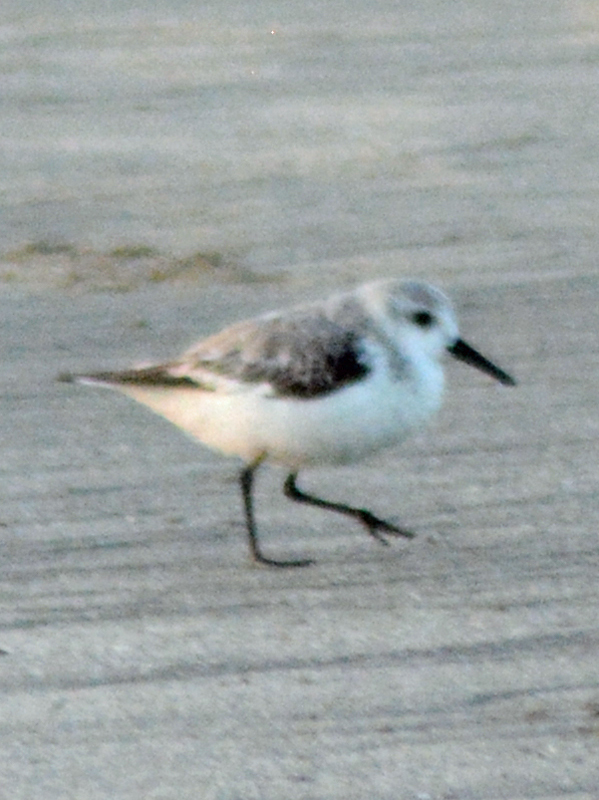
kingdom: Animalia
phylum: Chordata
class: Aves
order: Charadriiformes
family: Scolopacidae
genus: Calidris
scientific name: Calidris alba
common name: Sanderling
